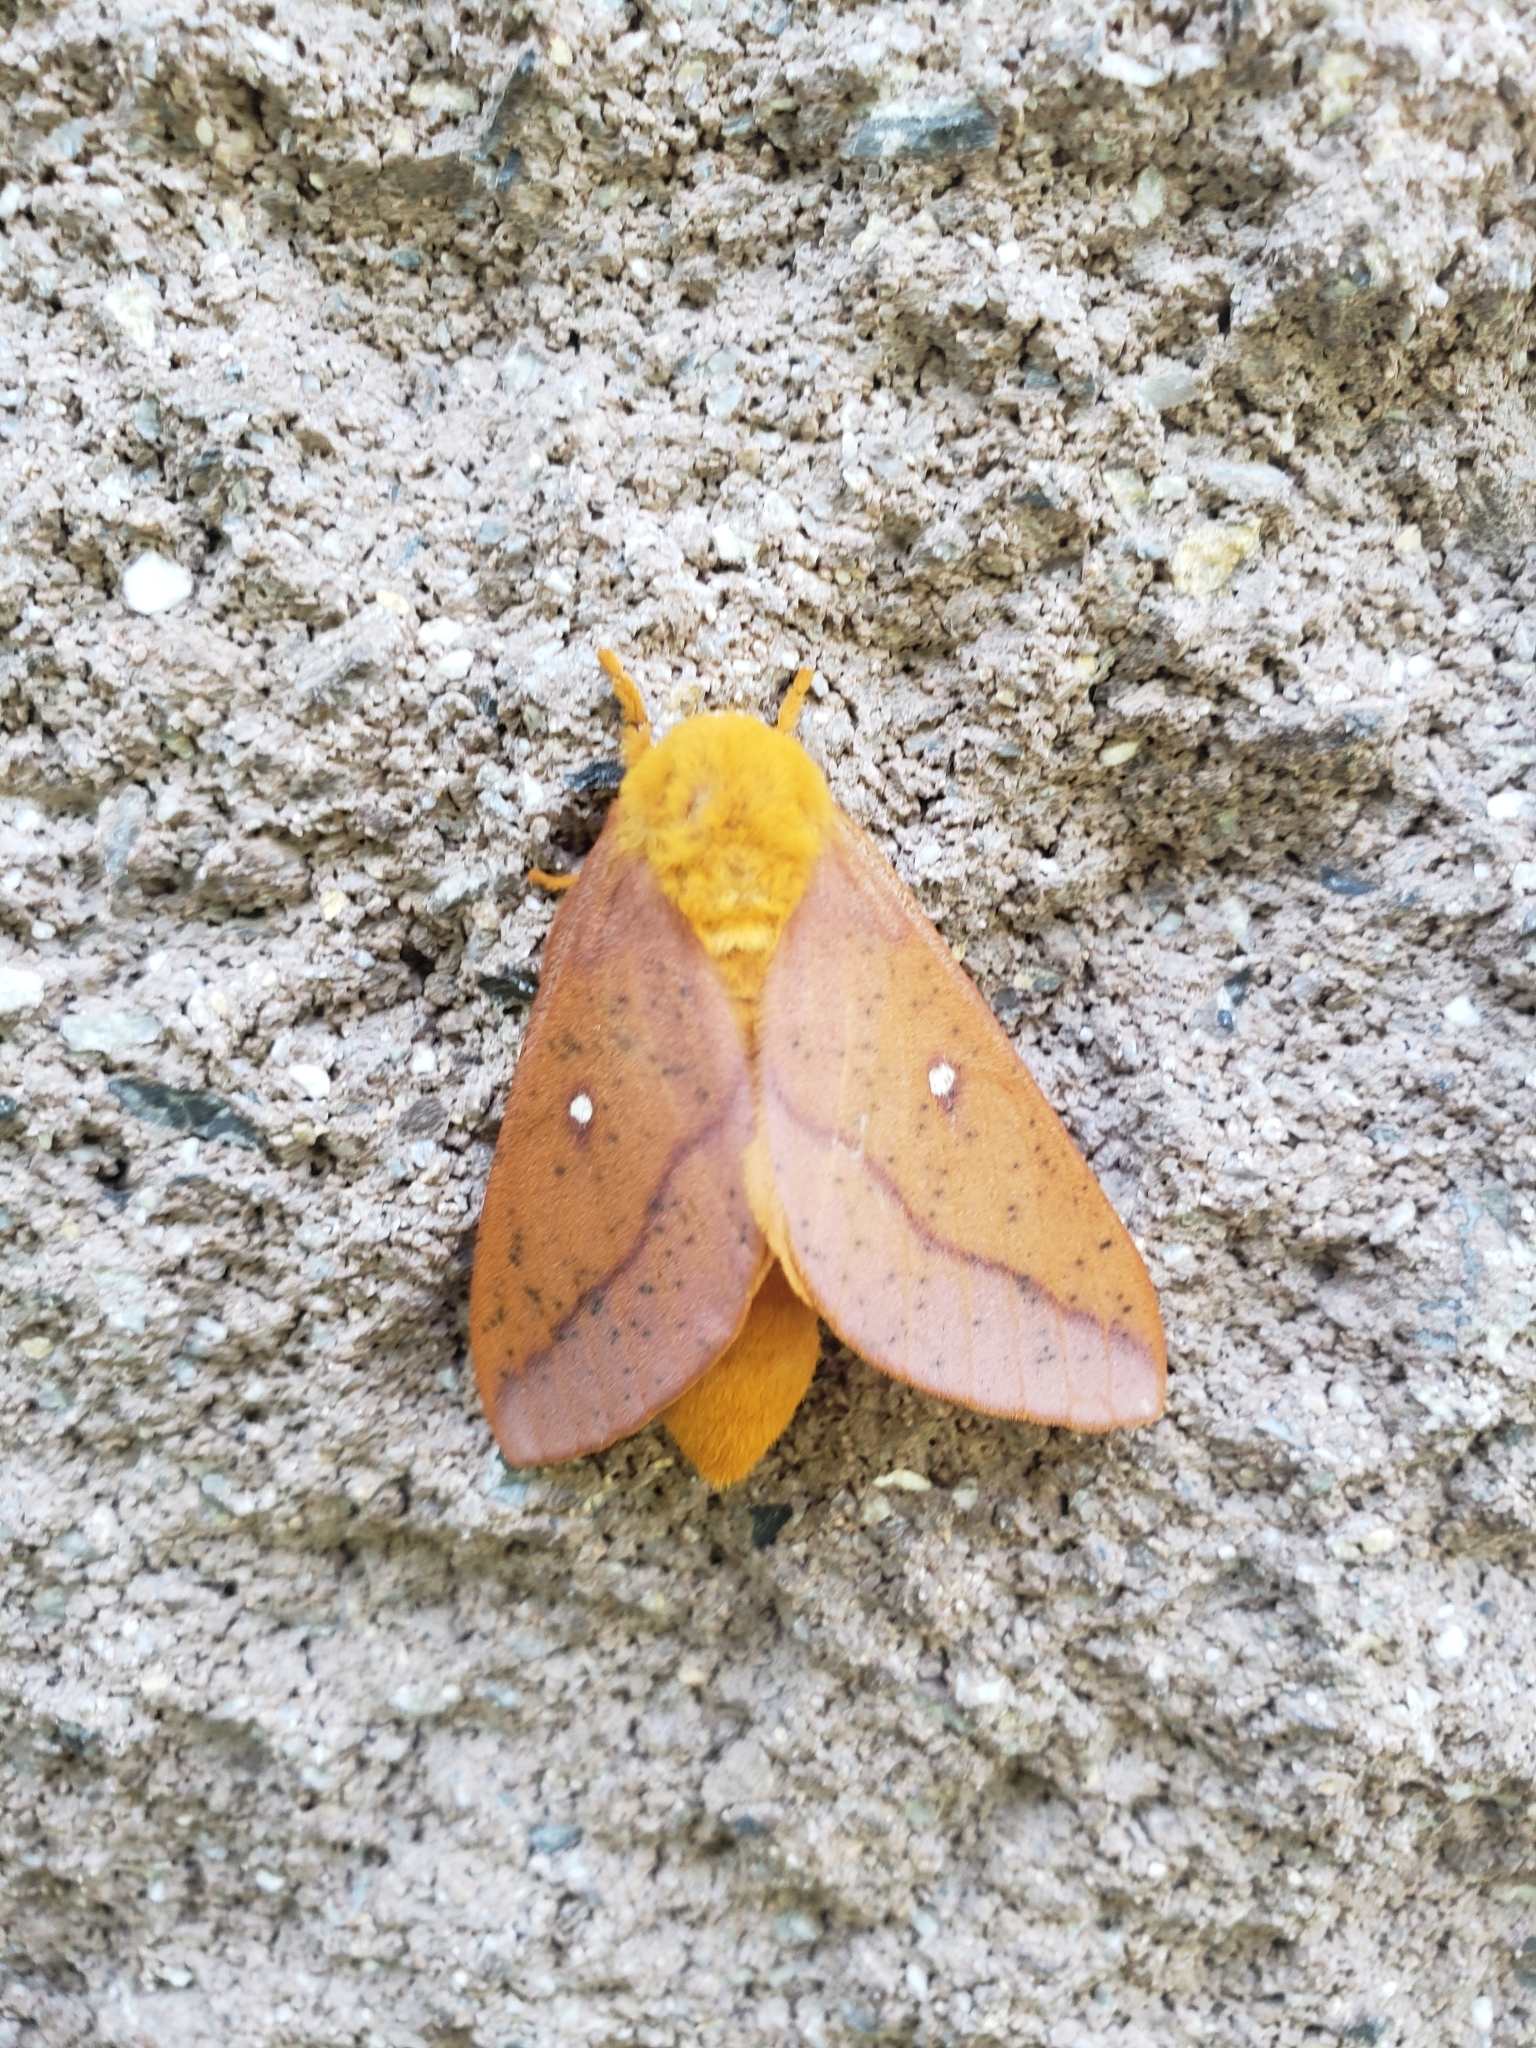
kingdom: Animalia
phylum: Arthropoda
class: Insecta
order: Lepidoptera
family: Saturniidae
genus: Anisota
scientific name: Anisota senatoria
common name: Orange-striped oakworm moth
